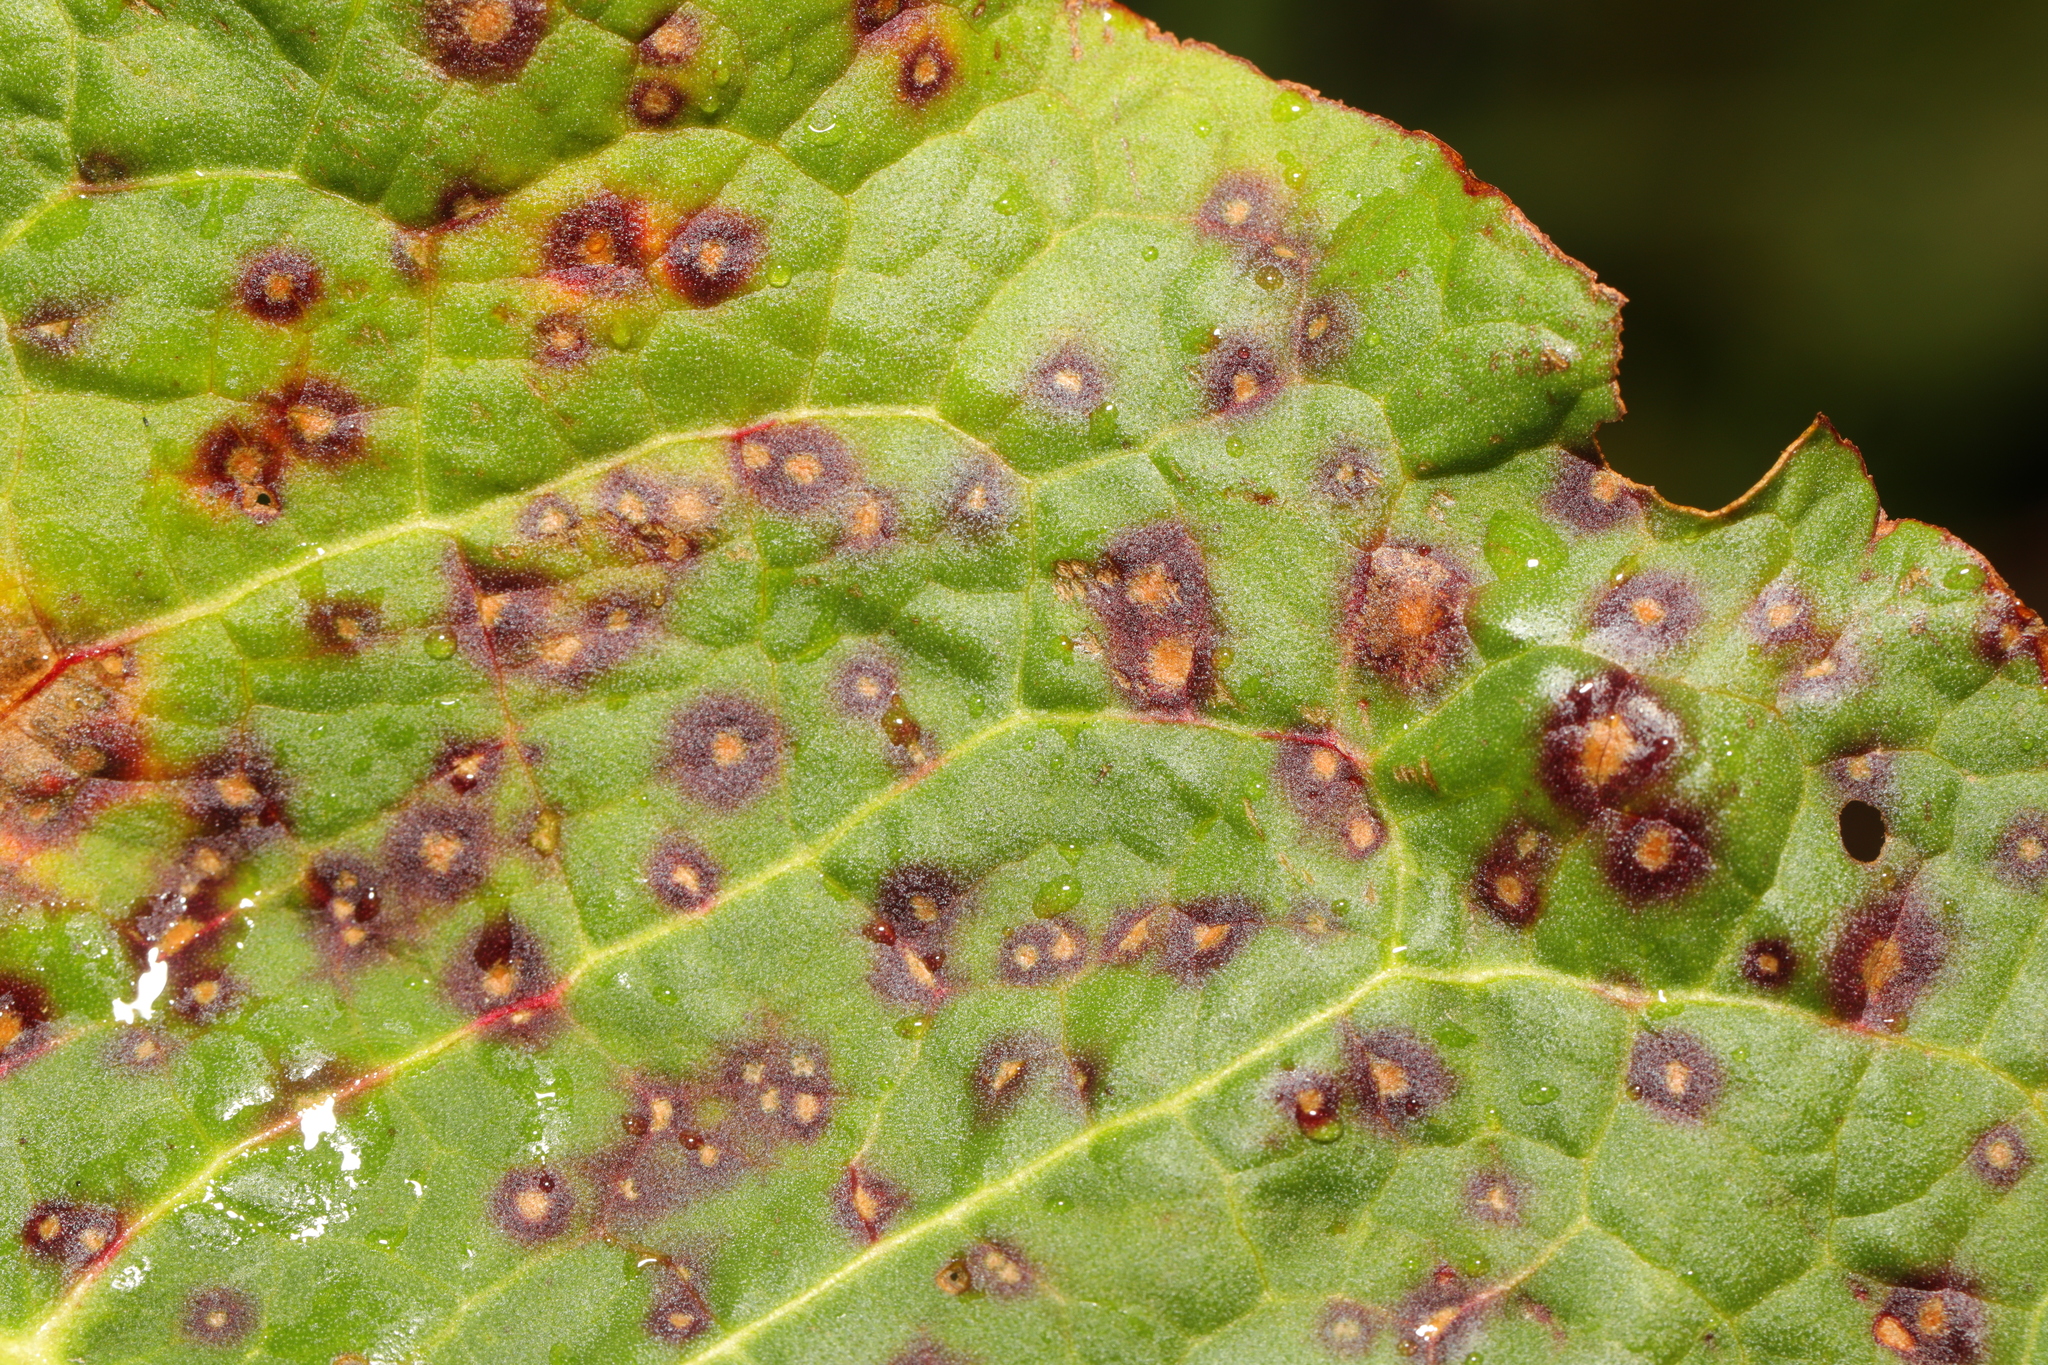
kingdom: Fungi
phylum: Ascomycota
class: Dothideomycetes
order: Mycosphaerellales
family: Mycosphaerellaceae
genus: Ramularia
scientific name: Ramularia rubella
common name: Red dock spot
